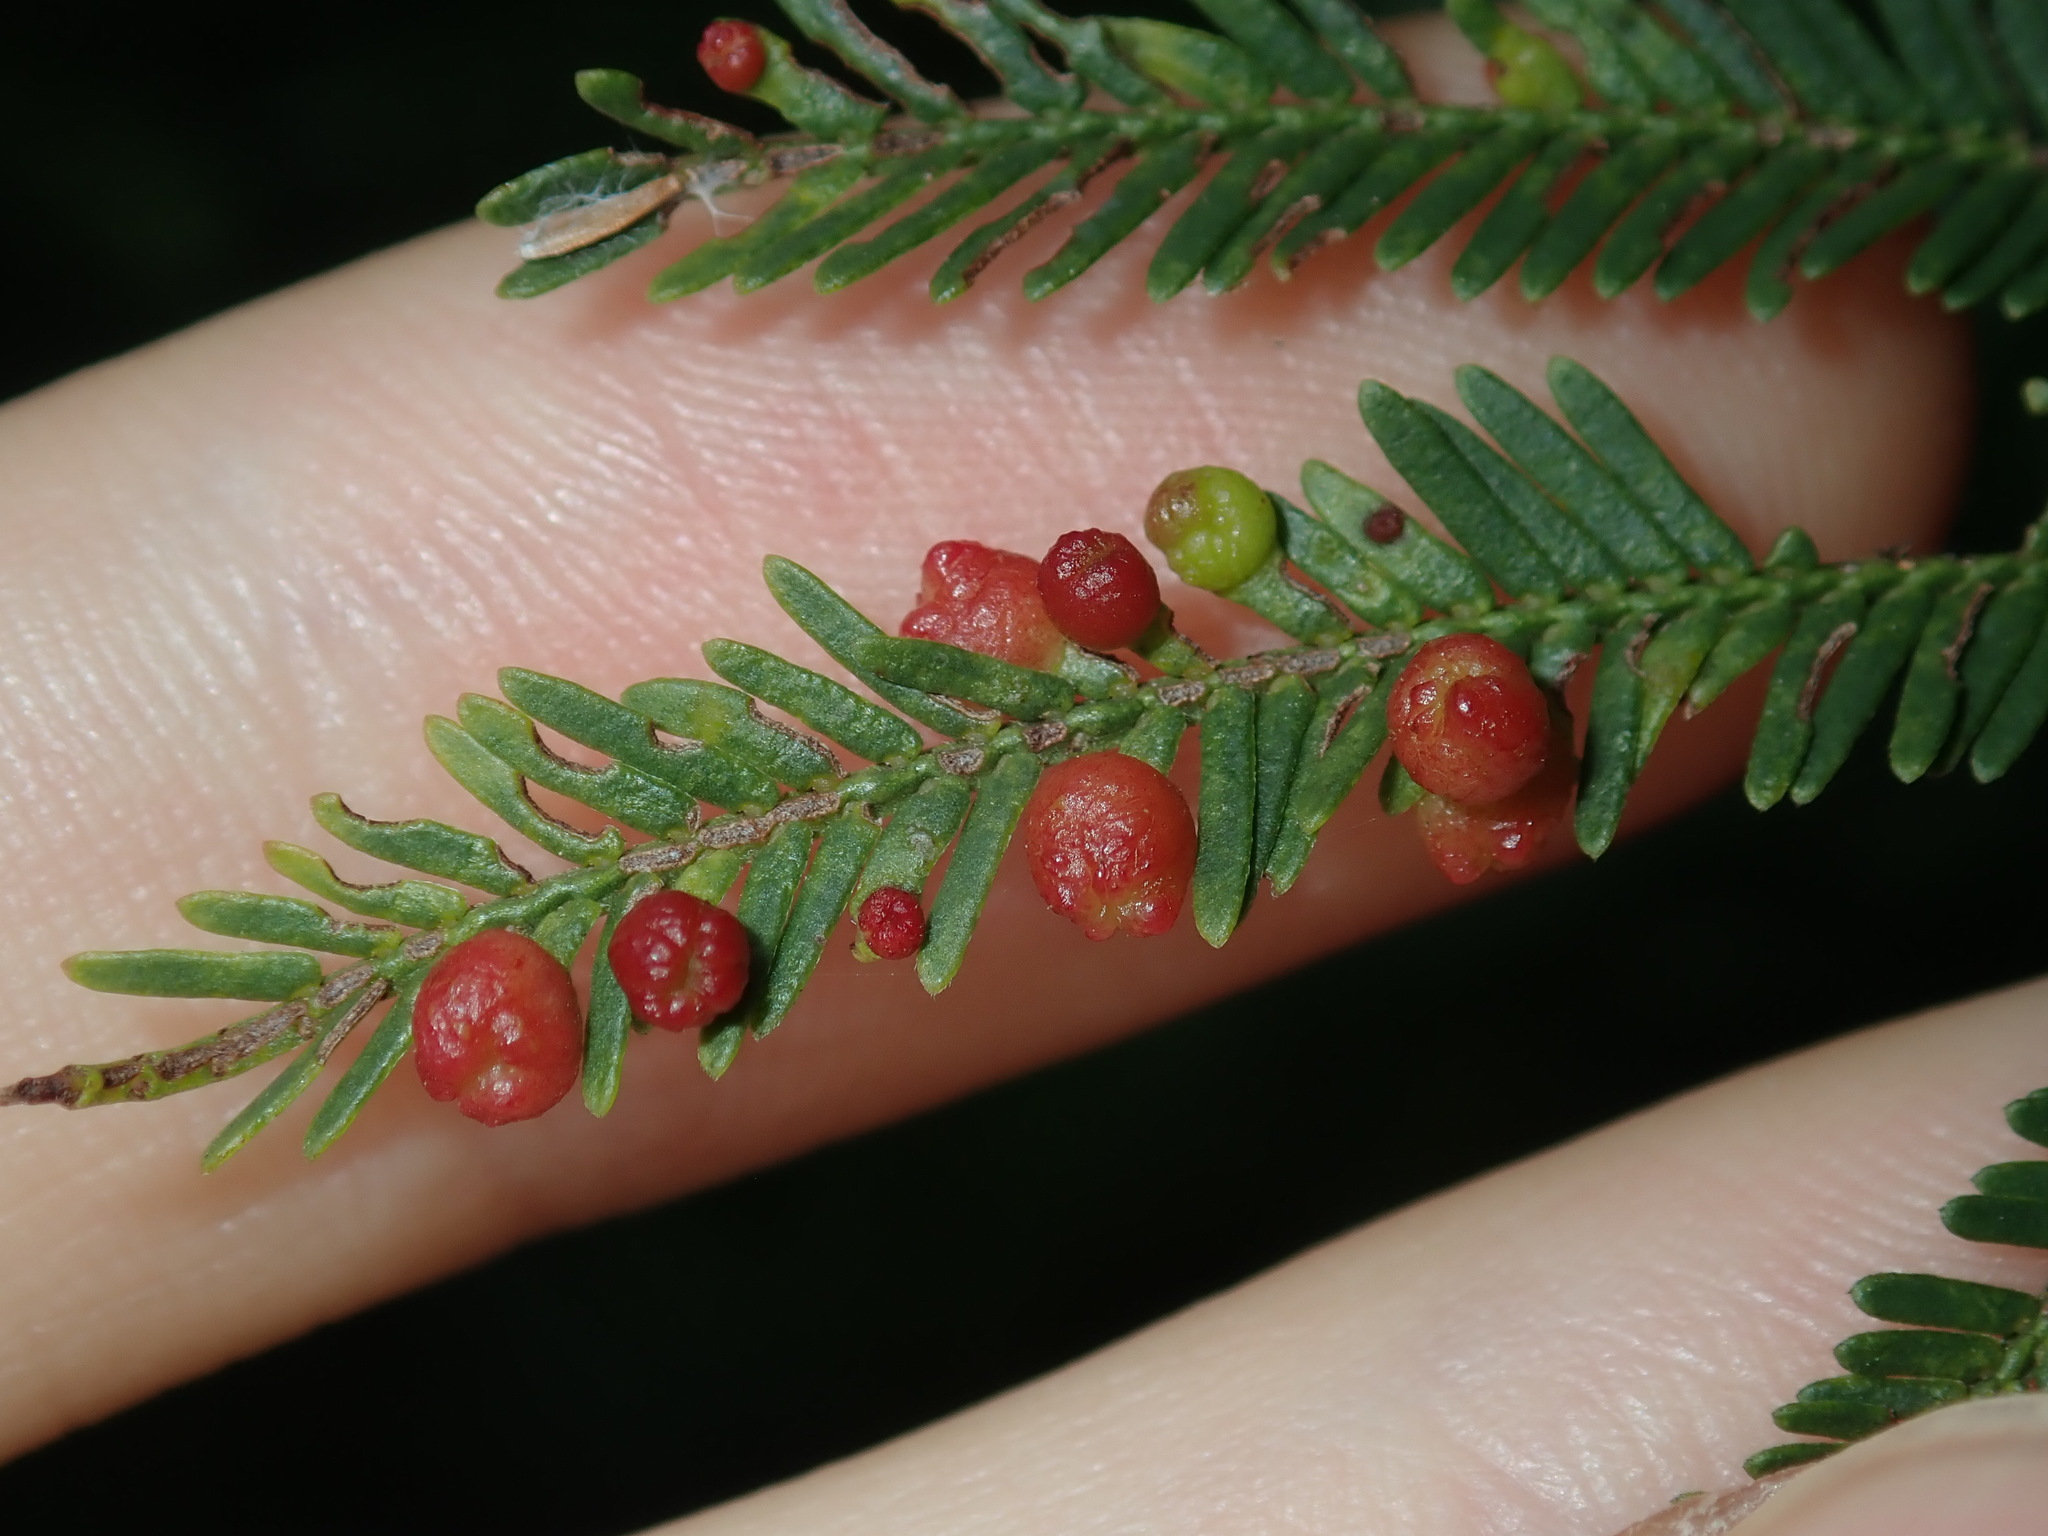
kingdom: Animalia
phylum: Arthropoda
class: Insecta
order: Diptera
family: Cecidomyiidae
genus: Austroacacidiplosis
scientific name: Austroacacidiplosis botrycephalae
